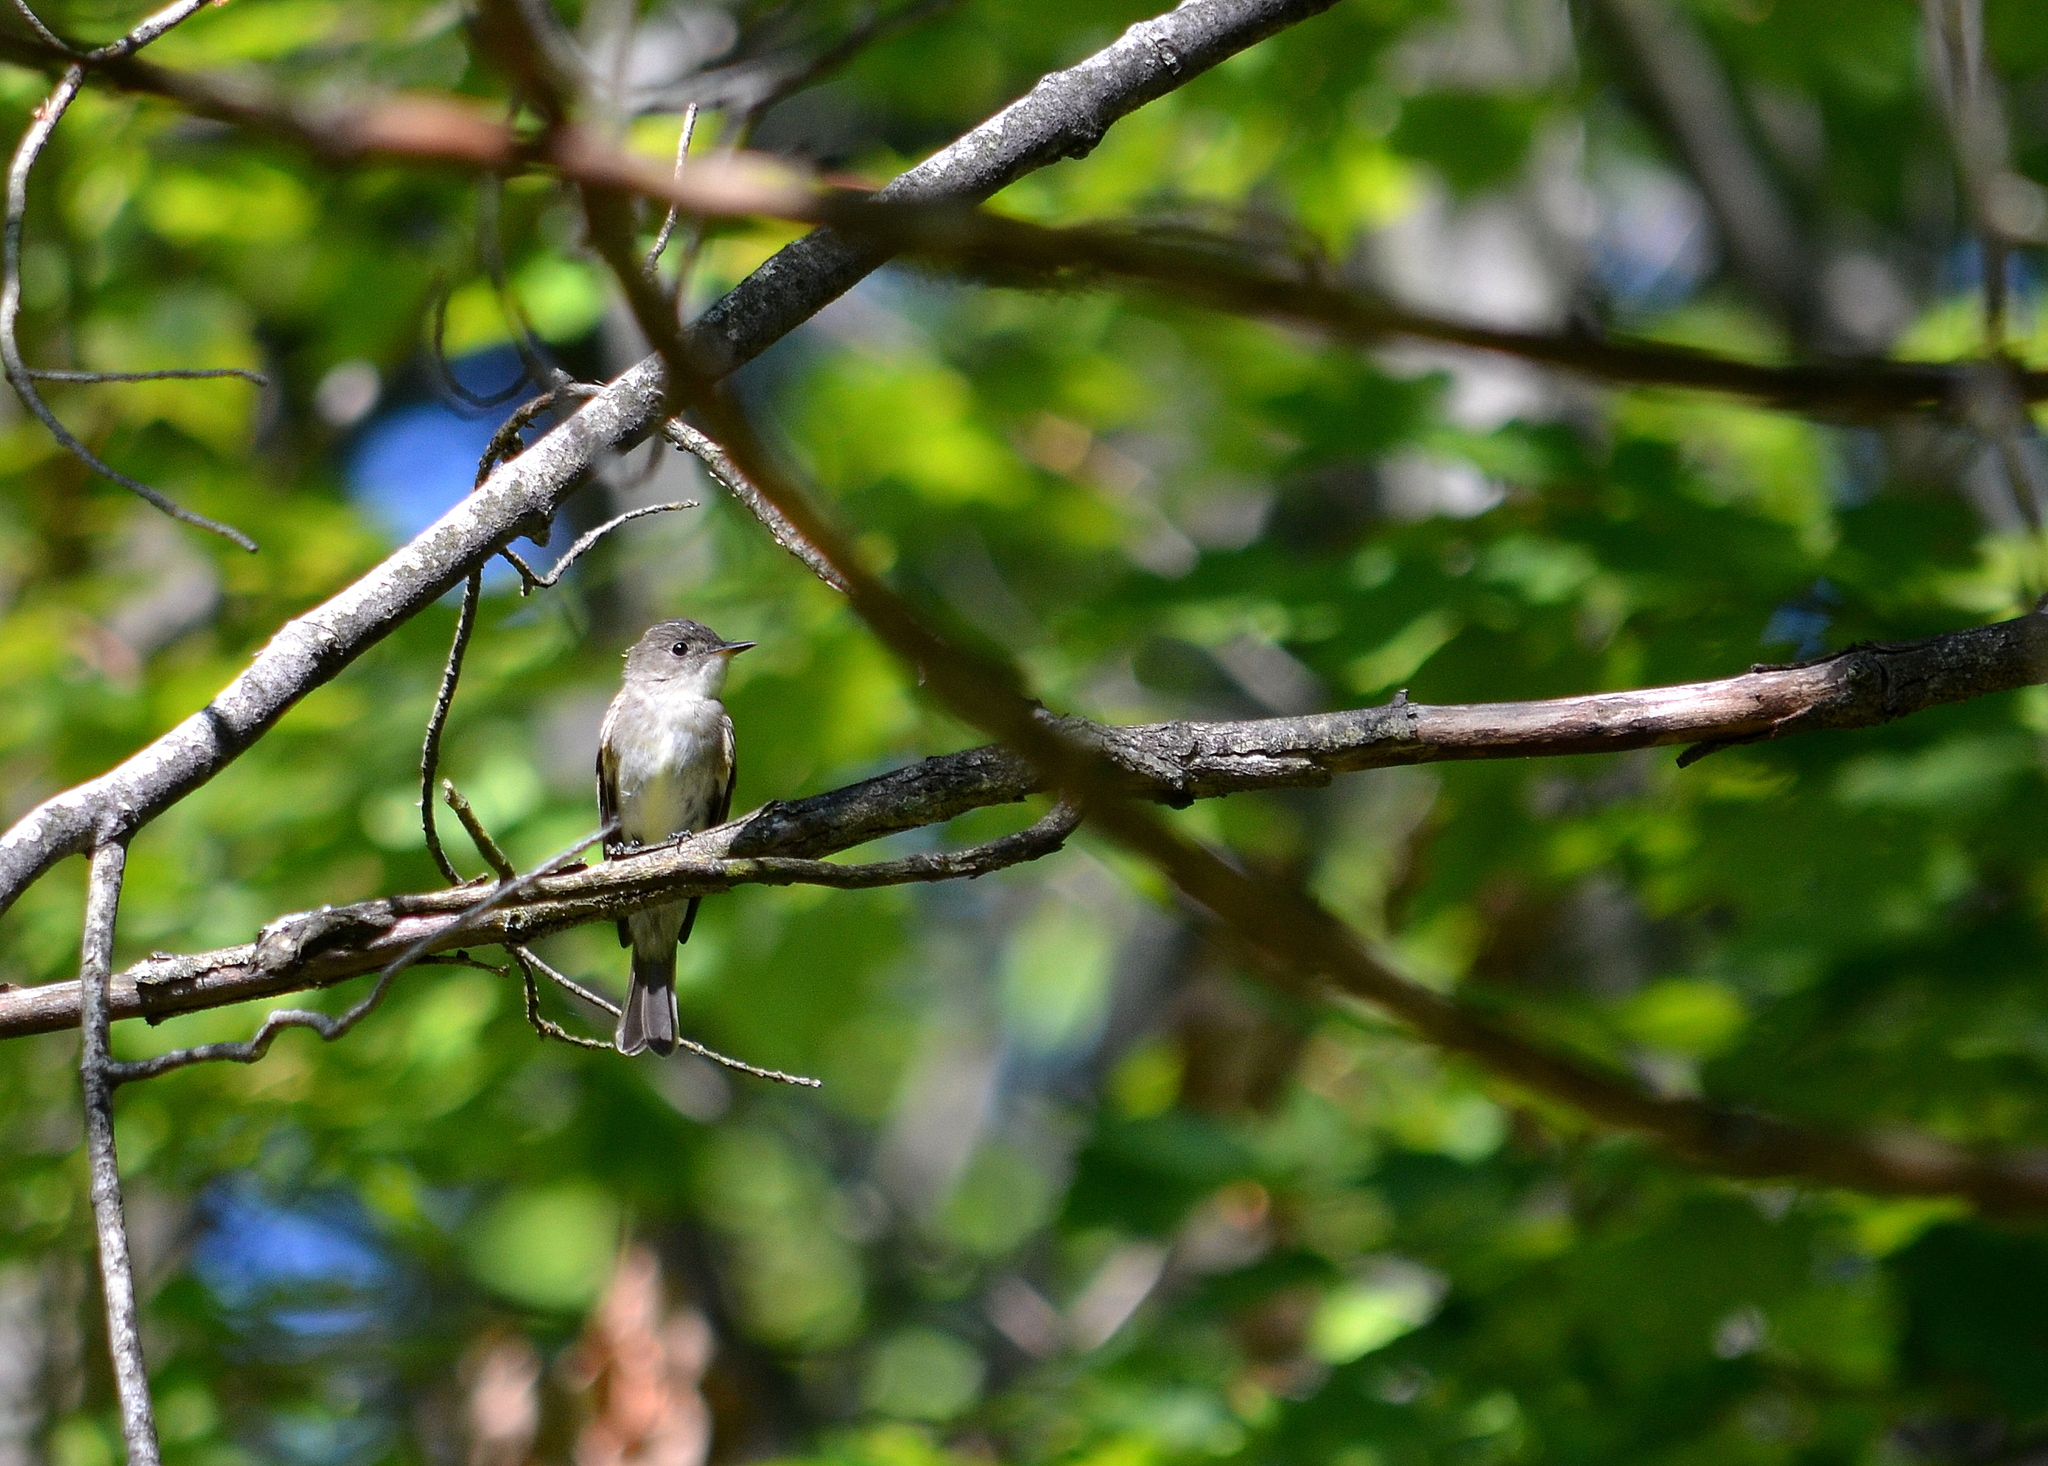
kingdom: Animalia
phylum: Chordata
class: Aves
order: Passeriformes
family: Tyrannidae
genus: Contopus
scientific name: Contopus virens
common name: Eastern wood-pewee
